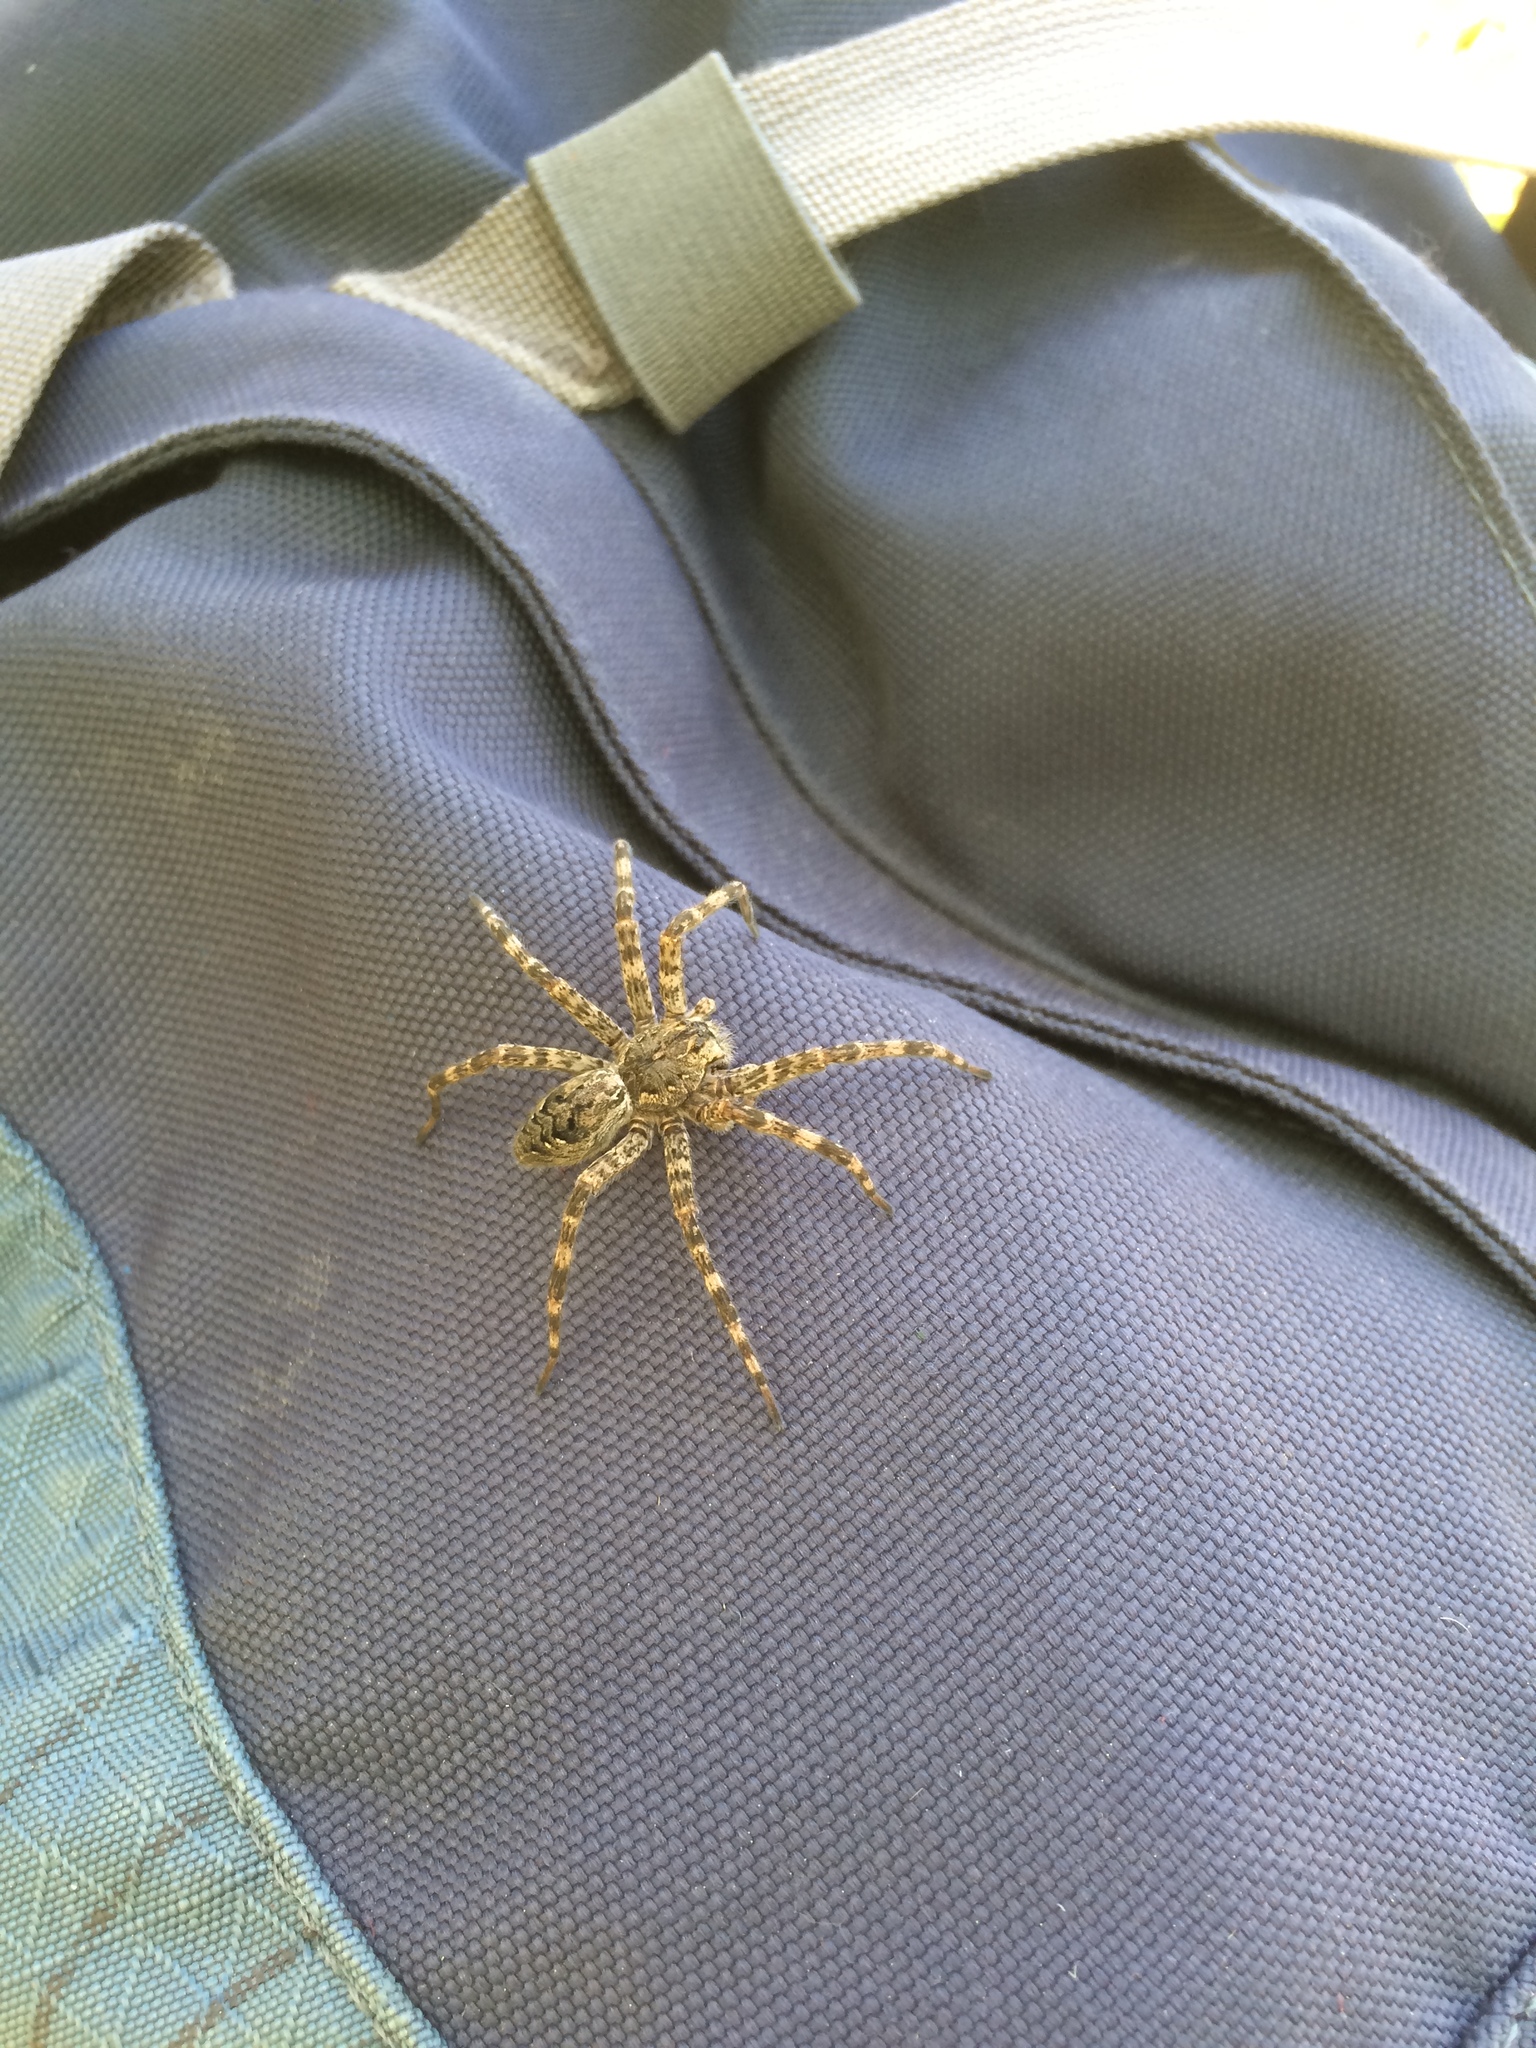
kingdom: Animalia
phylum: Arthropoda
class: Arachnida
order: Araneae
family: Pisauridae
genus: Dolomedes
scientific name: Dolomedes tenebrosus
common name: Dark fishing spider
